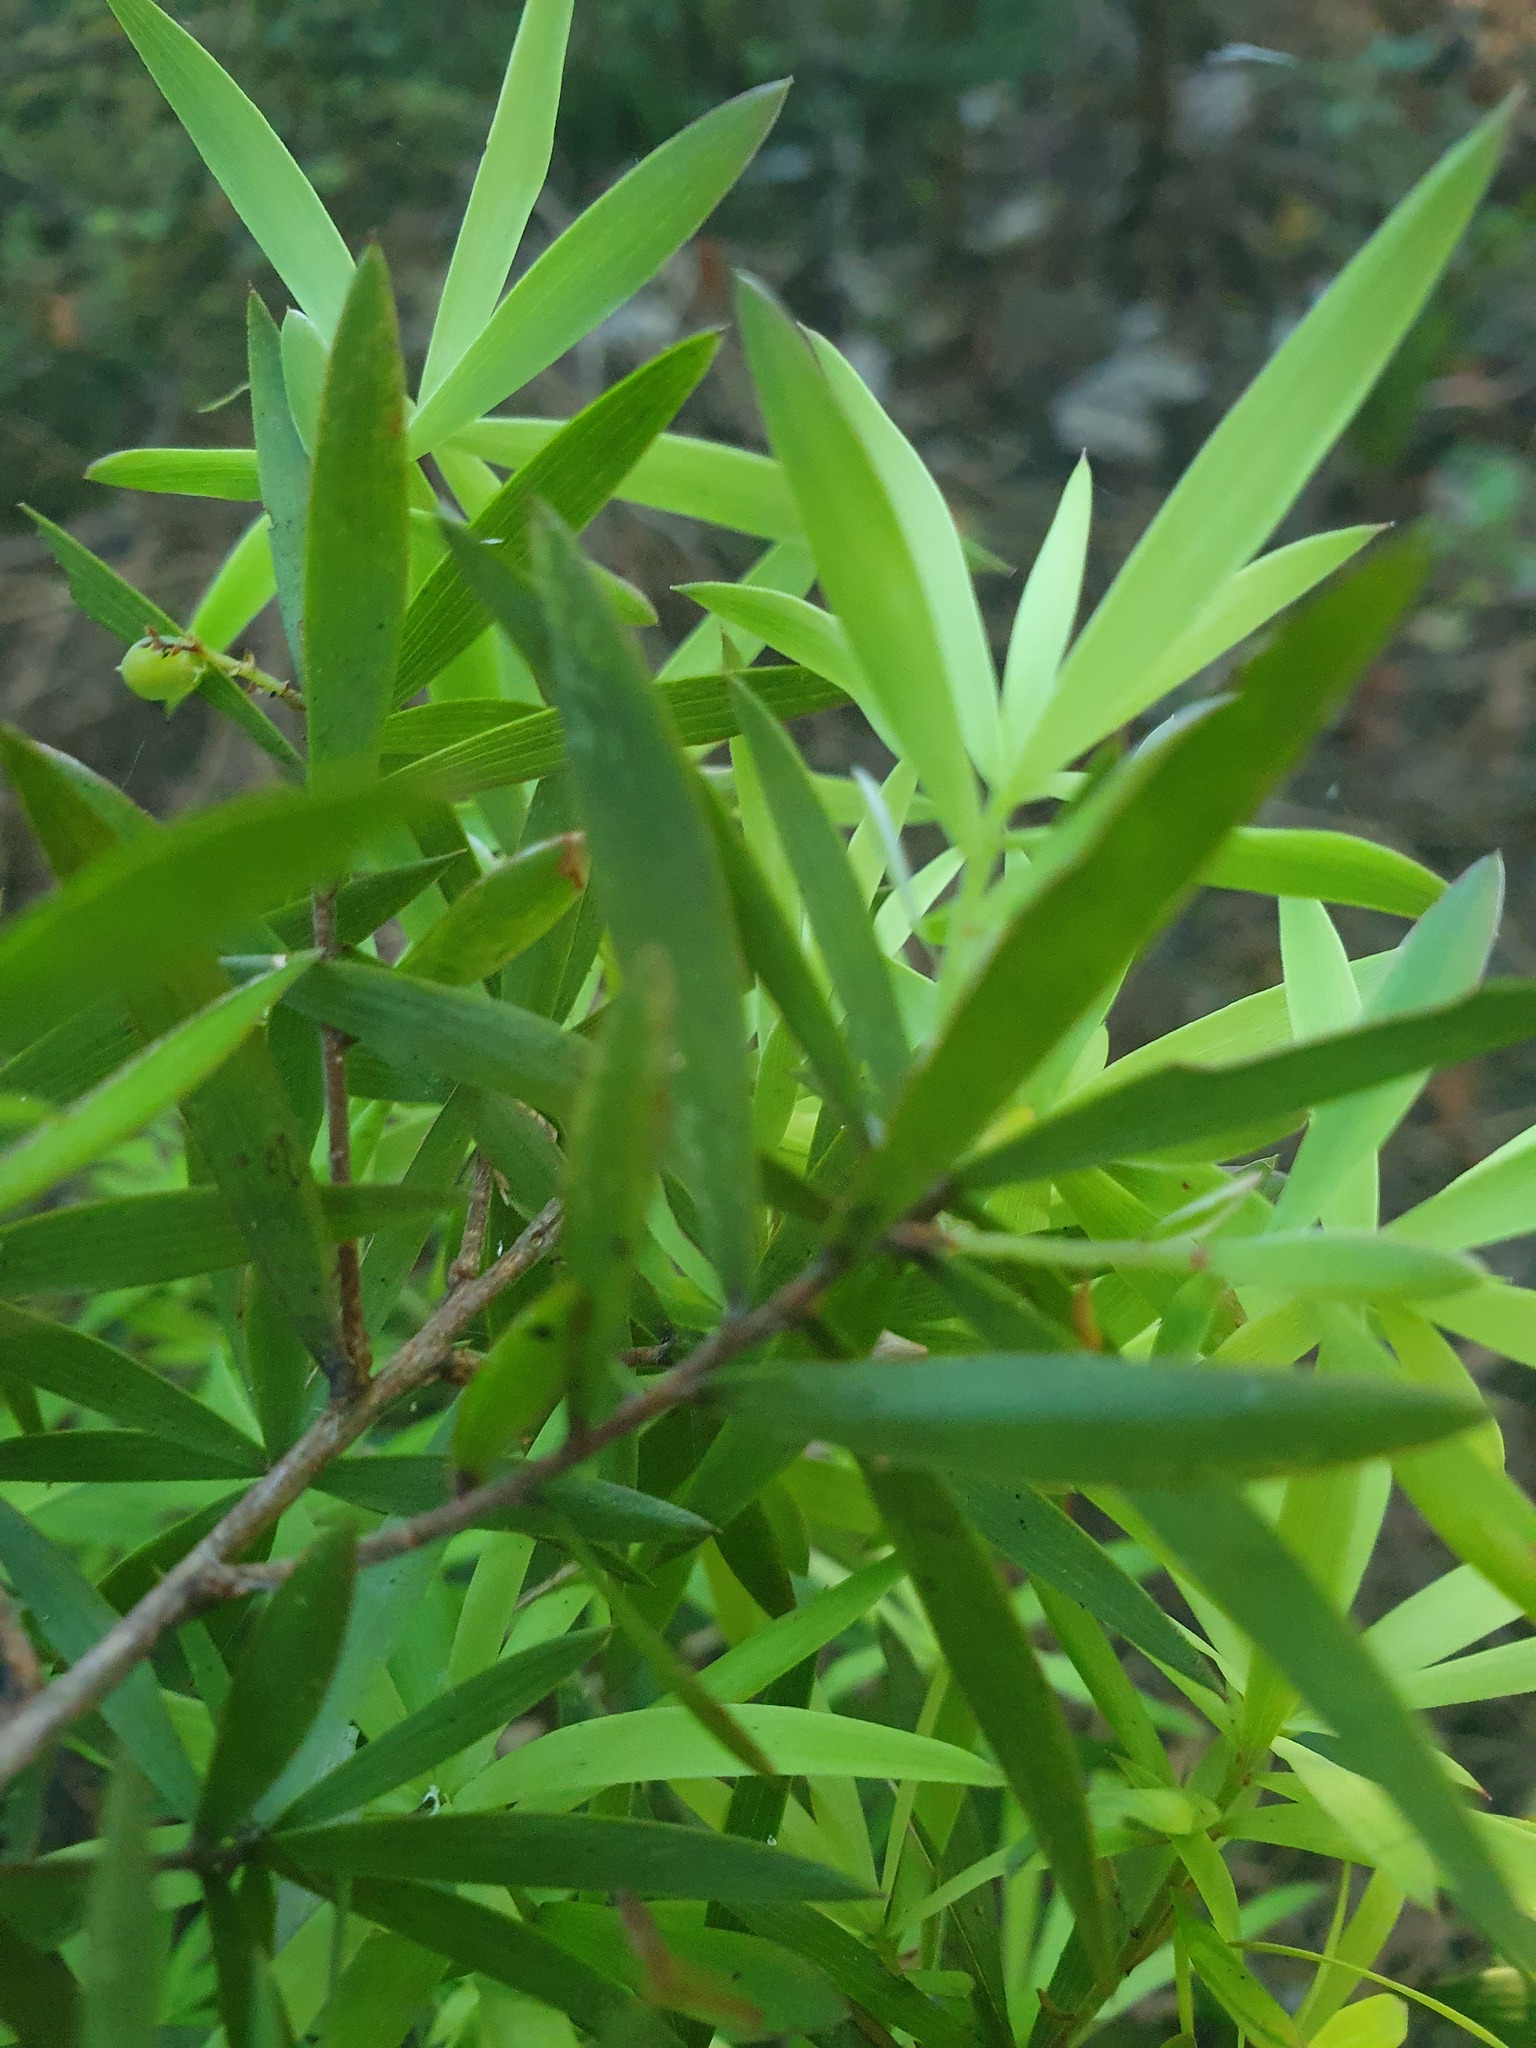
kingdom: Plantae
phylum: Tracheophyta
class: Magnoliopsida
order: Ericales
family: Ericaceae
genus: Leucopogon
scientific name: Leucopogon fasciculatus
